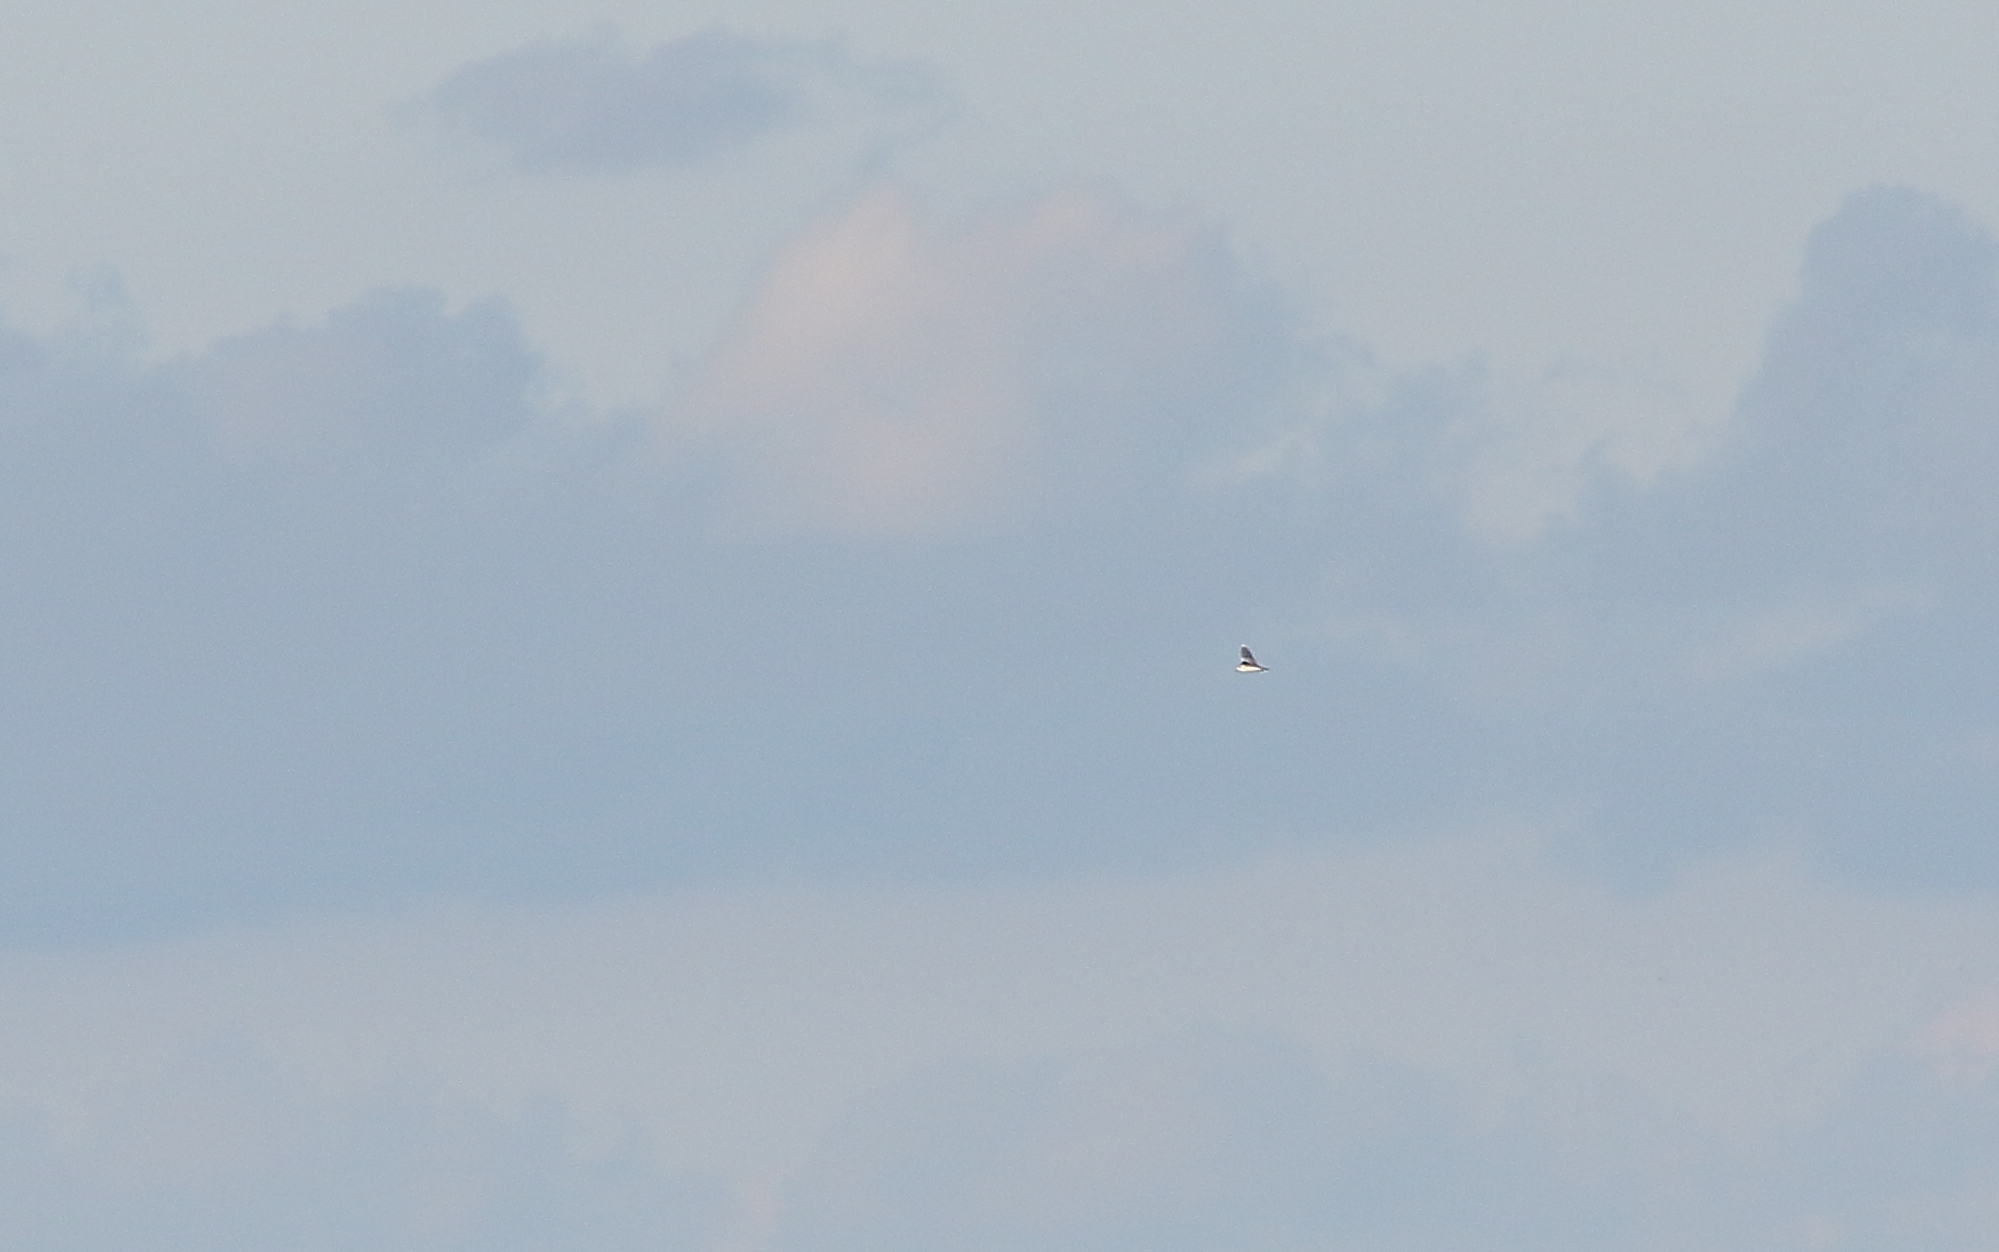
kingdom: Animalia
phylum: Chordata
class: Aves
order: Charadriiformes
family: Laridae
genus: Hydrocoloeus
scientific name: Hydrocoloeus minutus
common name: Little gull
